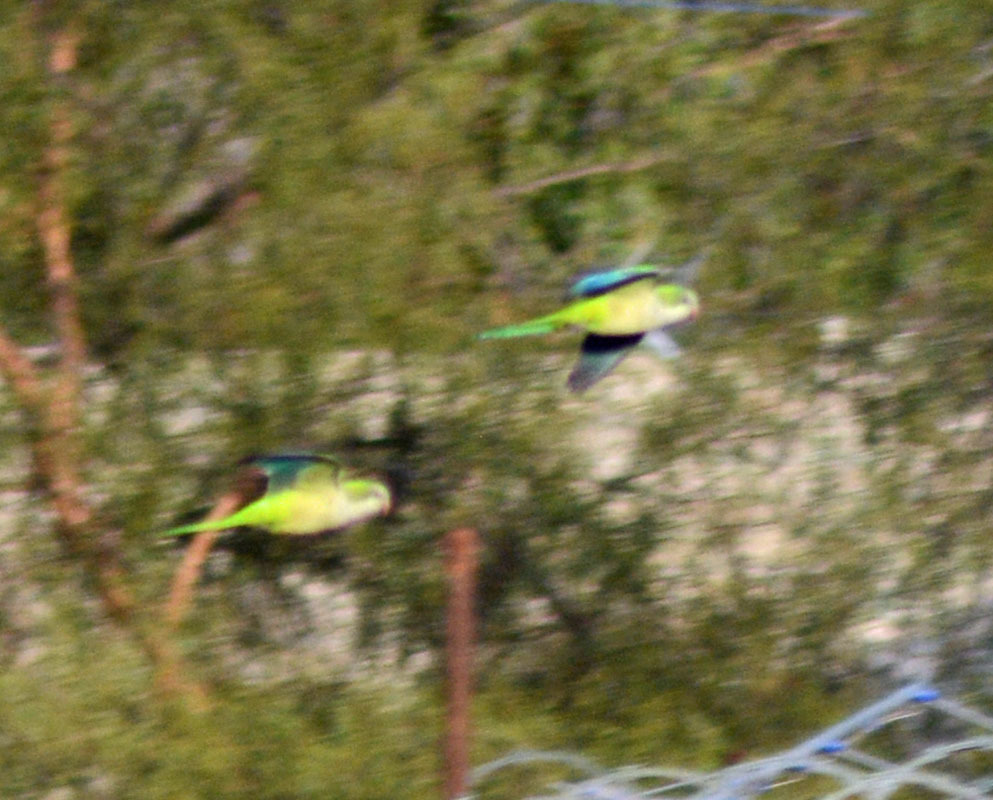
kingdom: Animalia
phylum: Chordata
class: Aves
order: Psittaciformes
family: Psittacidae
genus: Myiopsitta
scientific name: Myiopsitta monachus
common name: Monk parakeet
